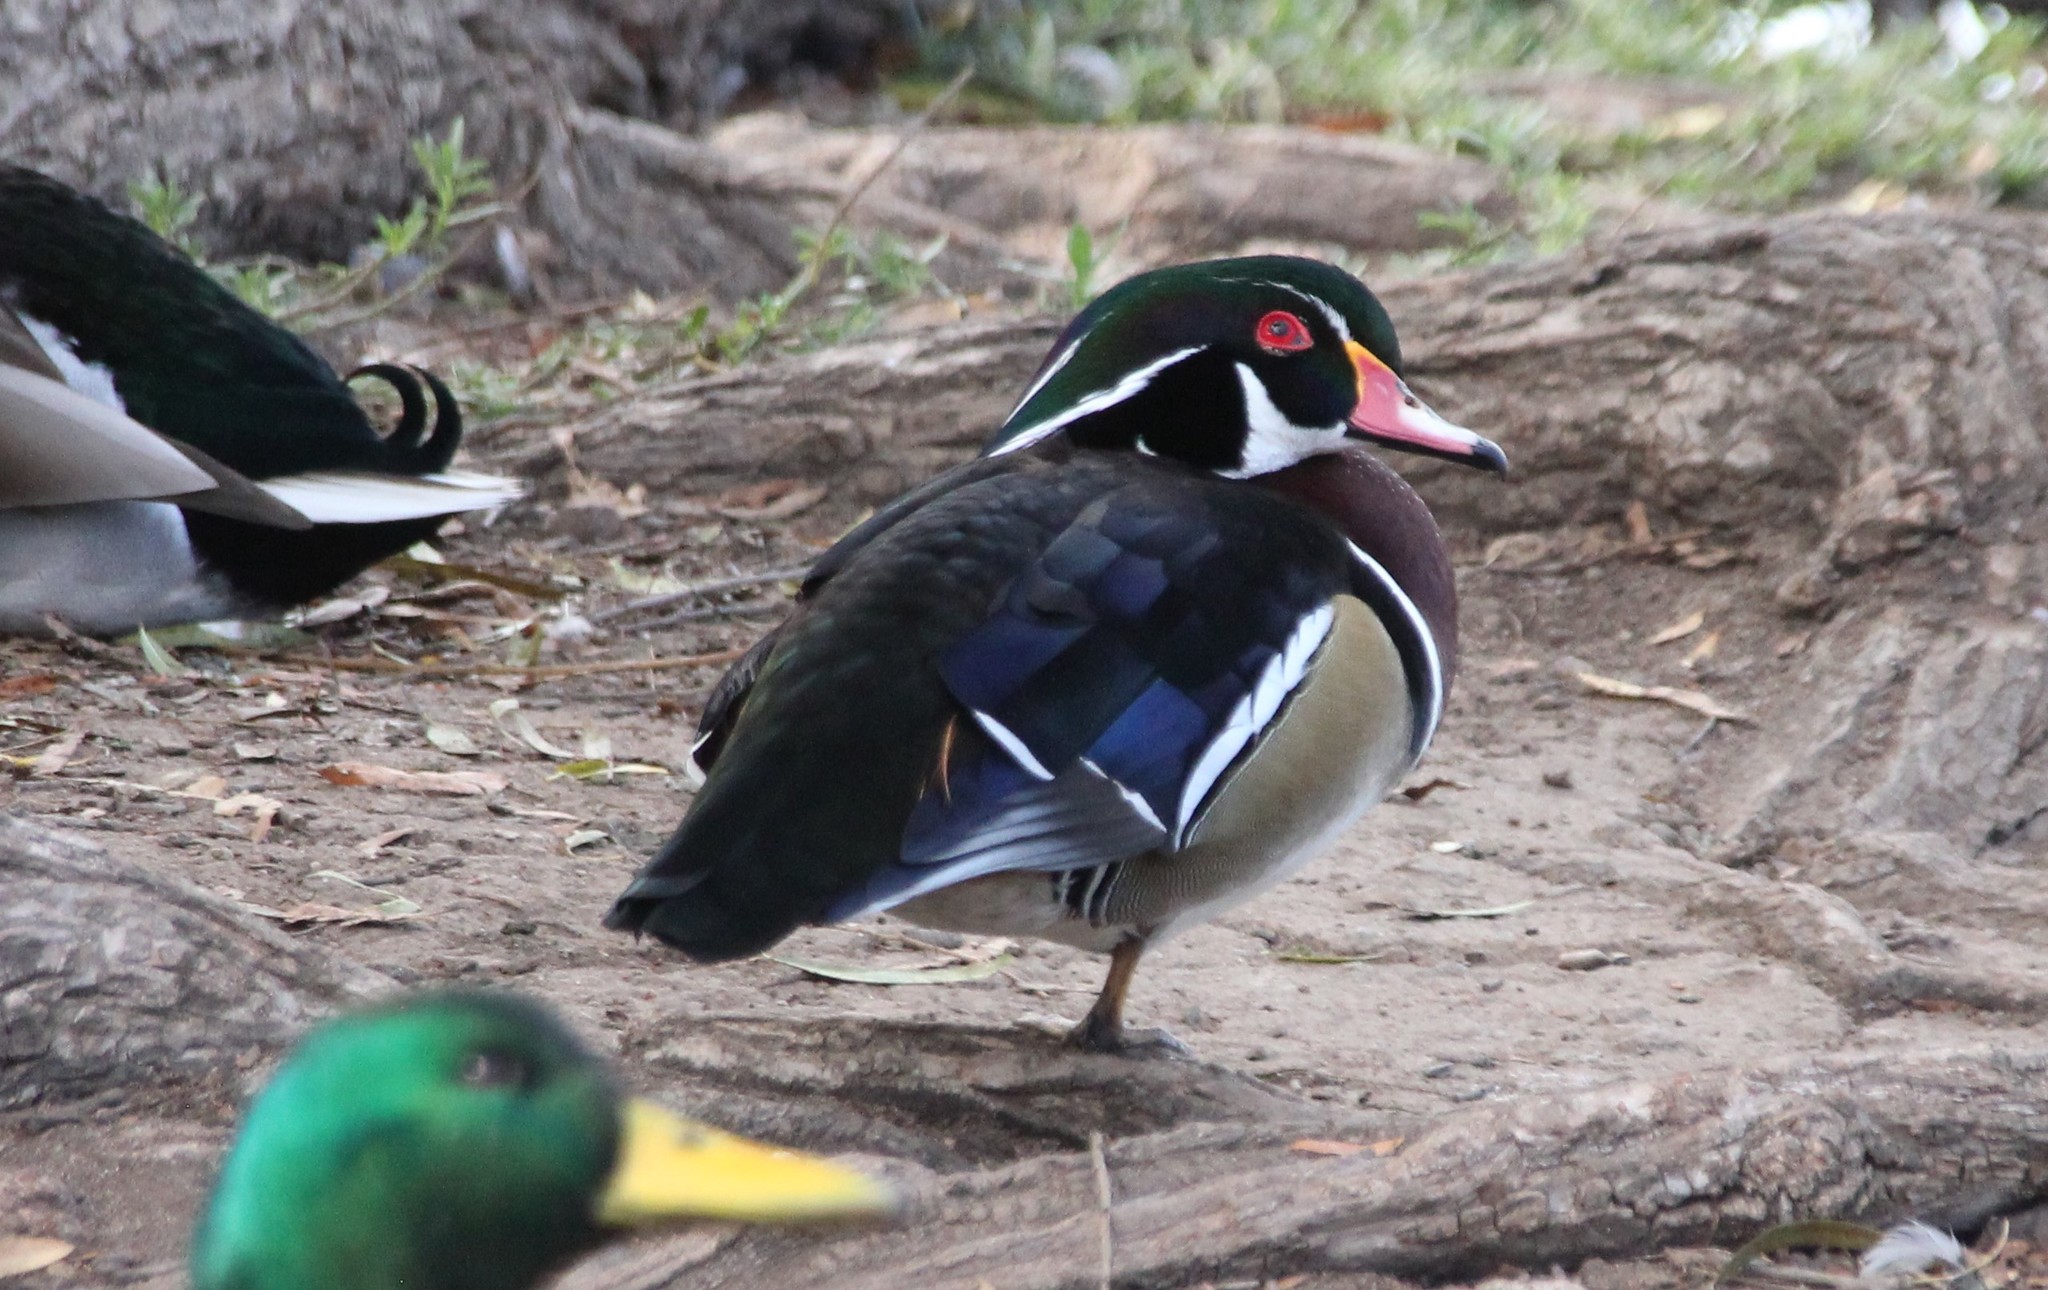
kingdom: Animalia
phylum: Chordata
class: Aves
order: Anseriformes
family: Anatidae
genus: Aix
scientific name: Aix sponsa
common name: Wood duck
